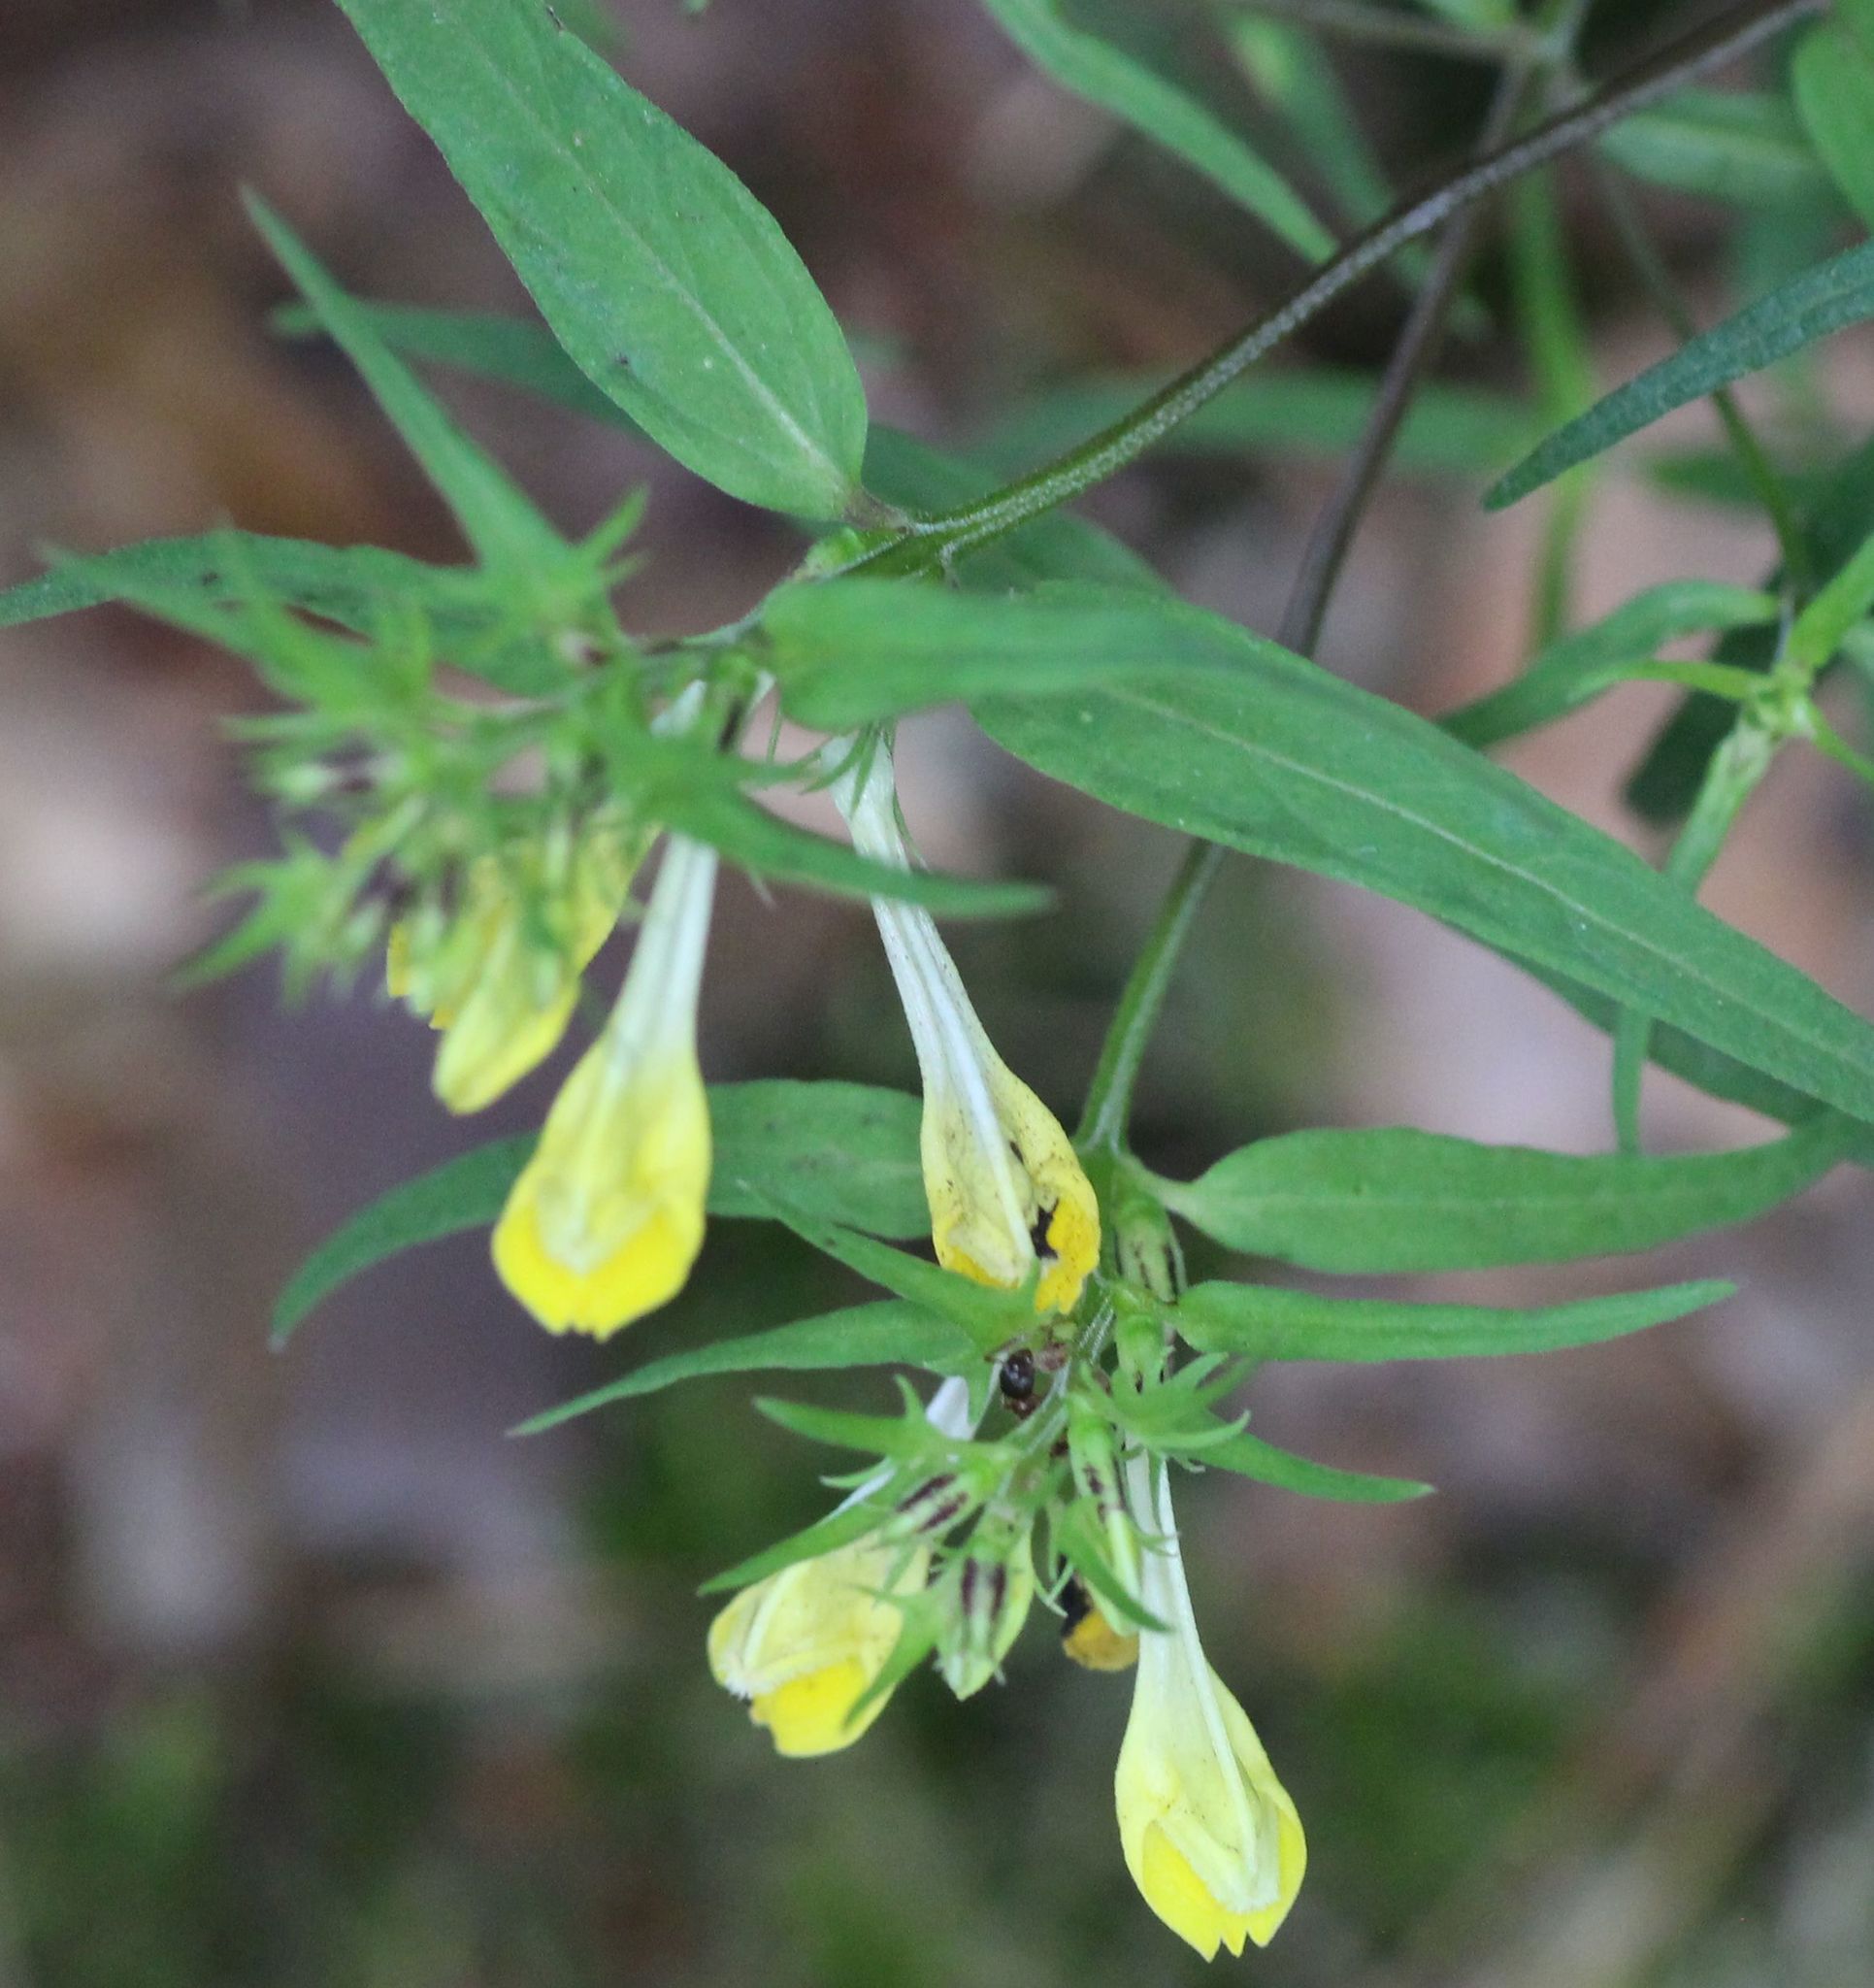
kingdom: Plantae
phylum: Tracheophyta
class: Magnoliopsida
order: Lamiales
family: Orobanchaceae
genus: Melampyrum
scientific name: Melampyrum pratense
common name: Common cow-wheat
